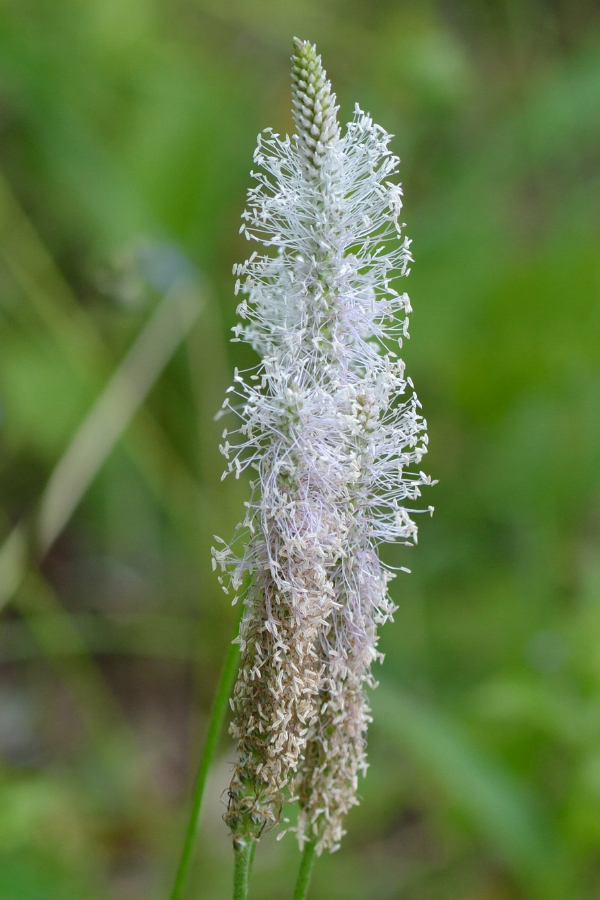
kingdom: Plantae
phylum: Tracheophyta
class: Magnoliopsida
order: Lamiales
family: Plantaginaceae
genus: Plantago
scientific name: Plantago media
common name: Hoary plantain
